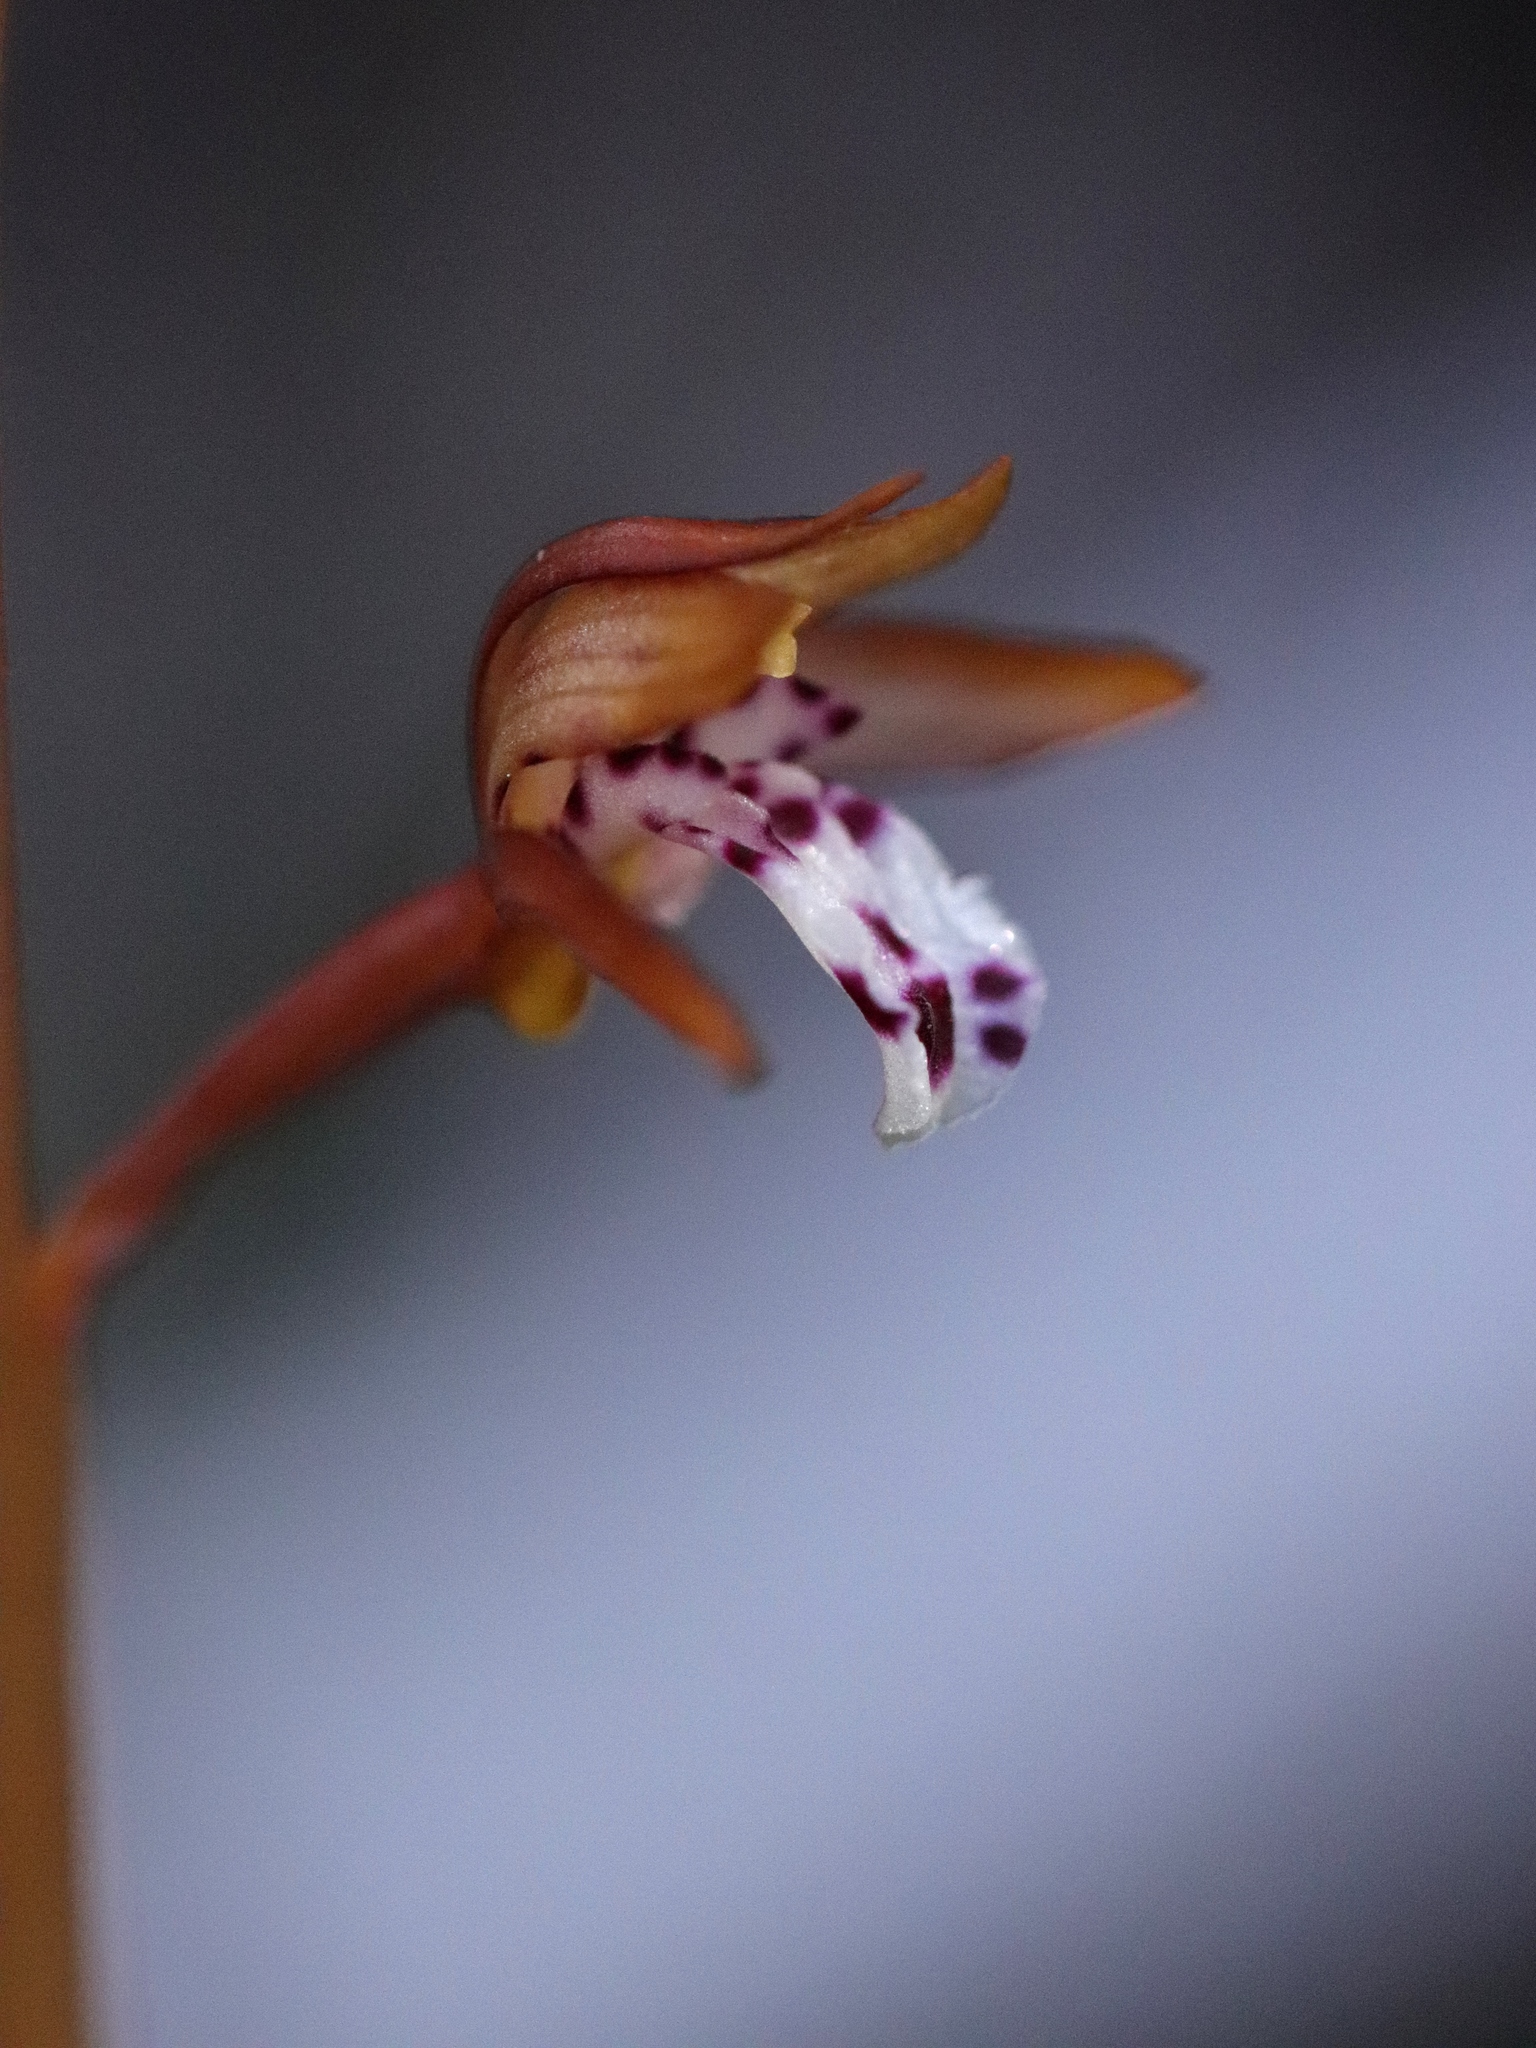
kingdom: Plantae
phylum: Tracheophyta
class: Liliopsida
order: Asparagales
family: Orchidaceae
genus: Corallorhiza
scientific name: Corallorhiza maculata
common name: Spotted coralroot
